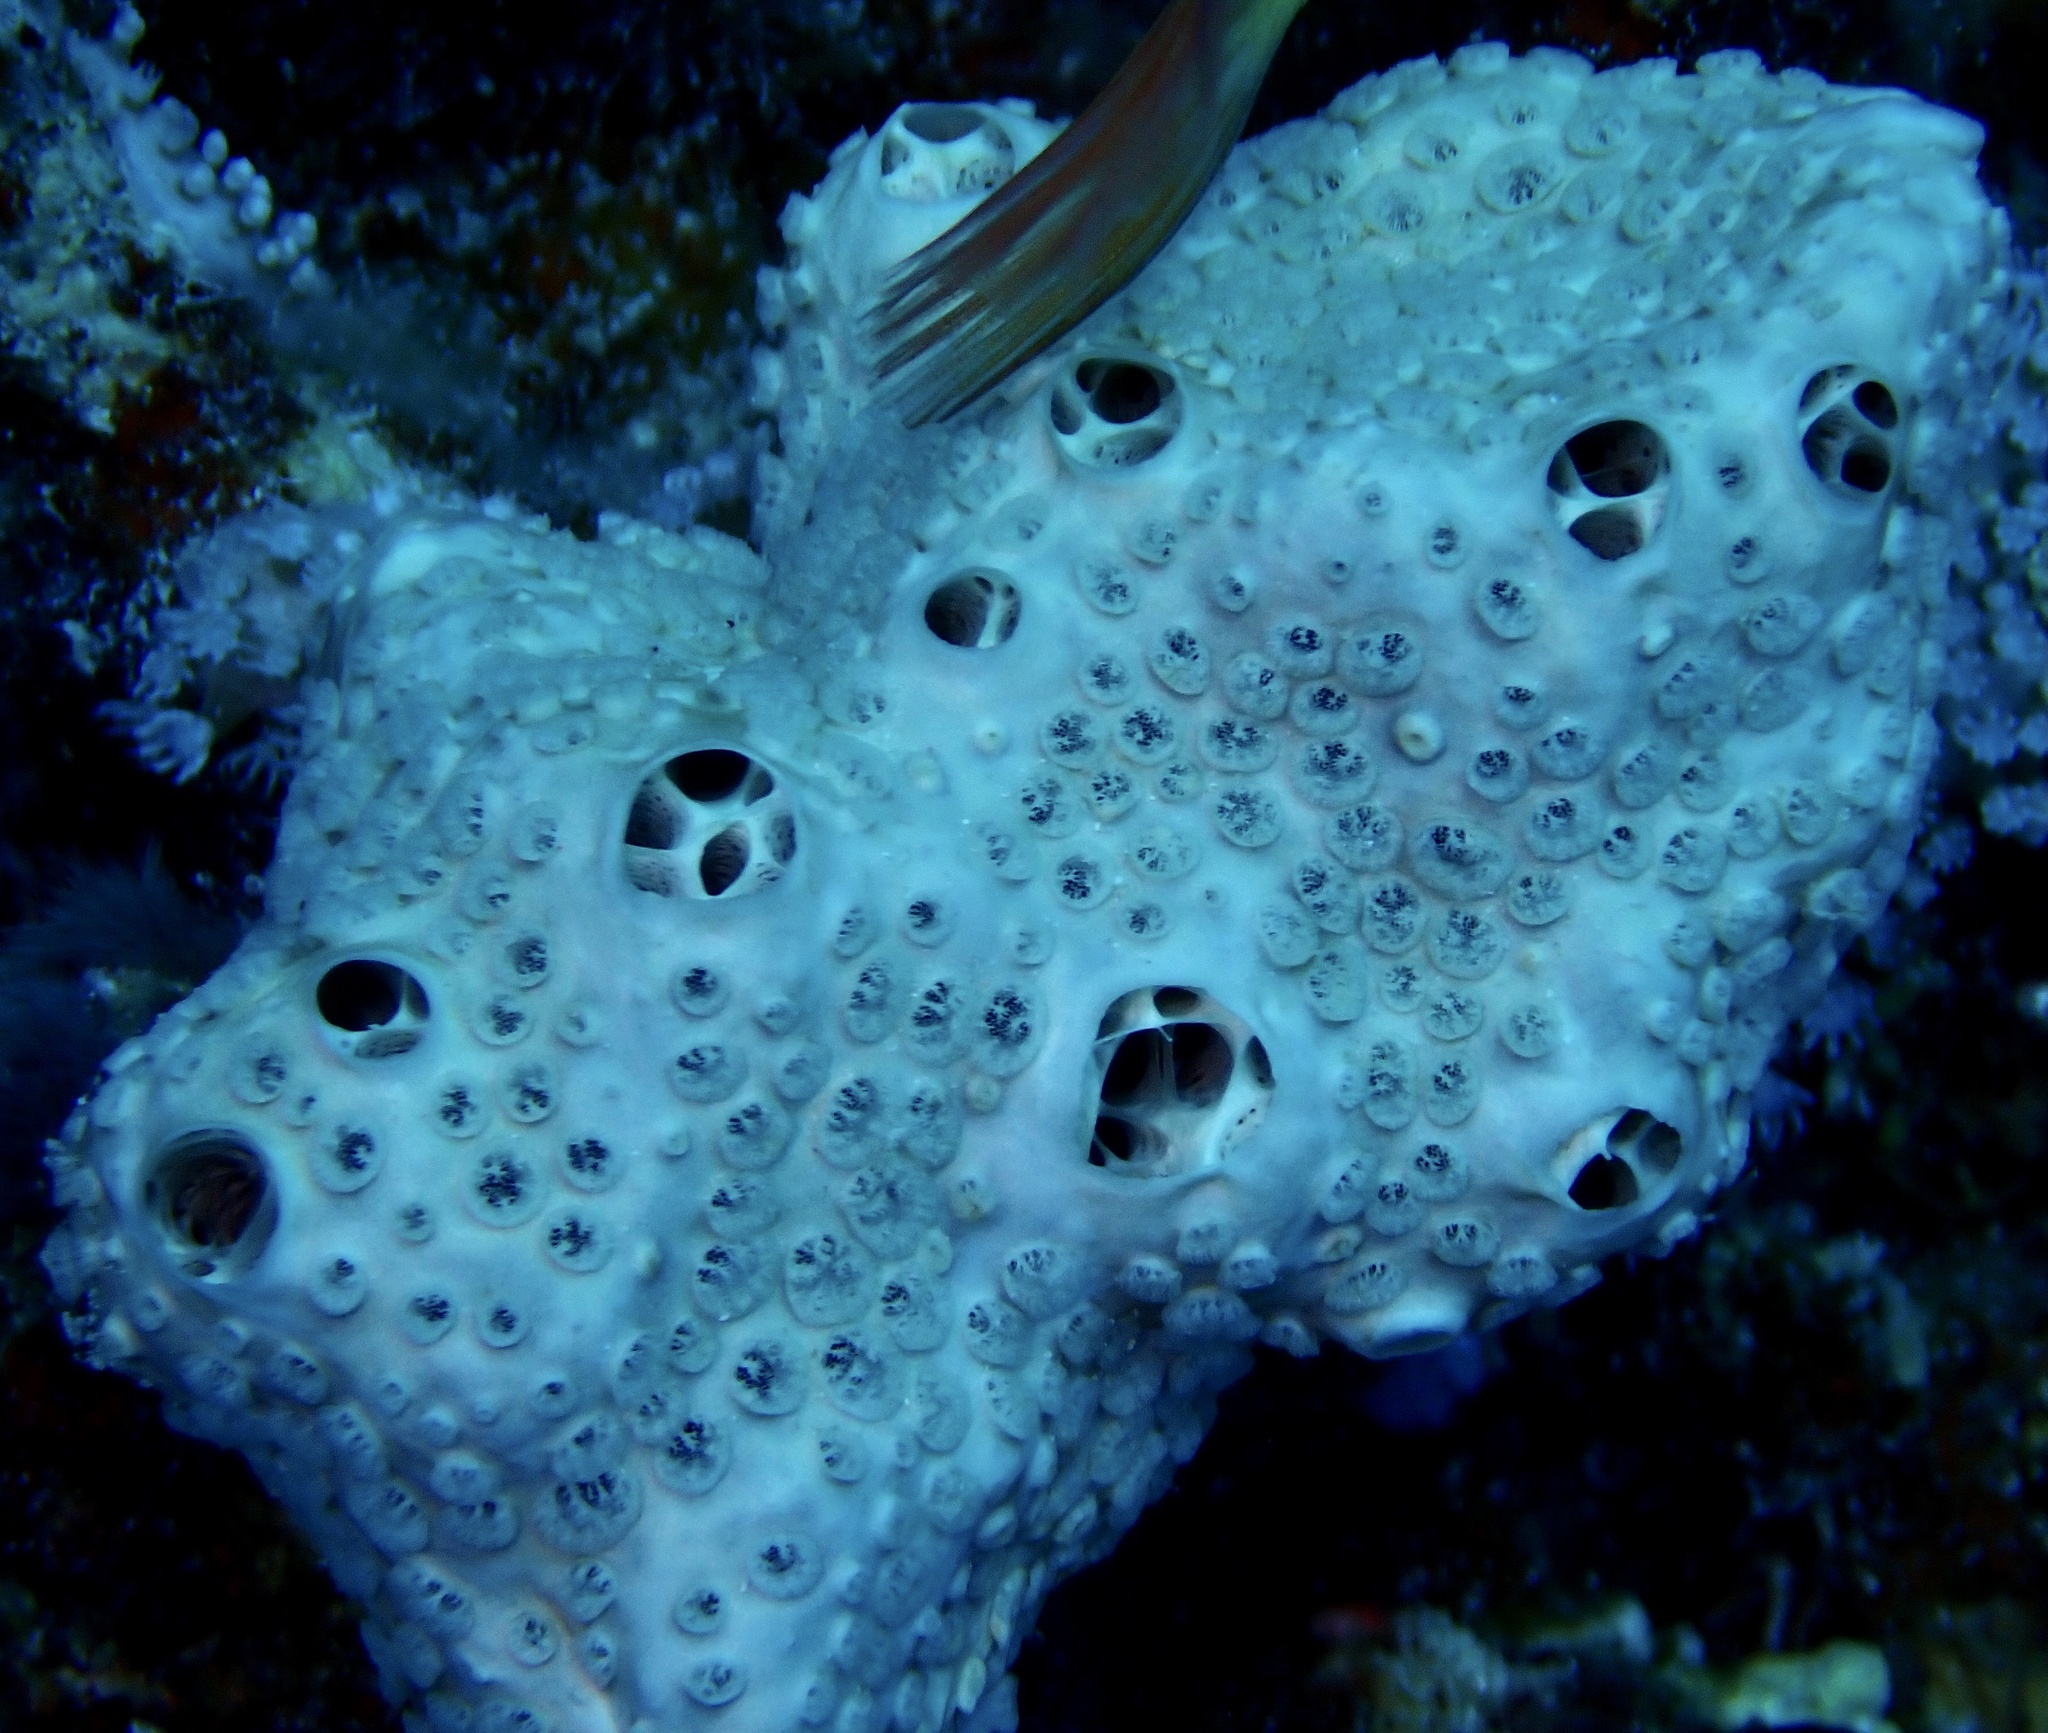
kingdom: Animalia
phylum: Porifera
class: Demospongiae
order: Poecilosclerida
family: Crellidae
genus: Crella
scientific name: Crella cyathophora
